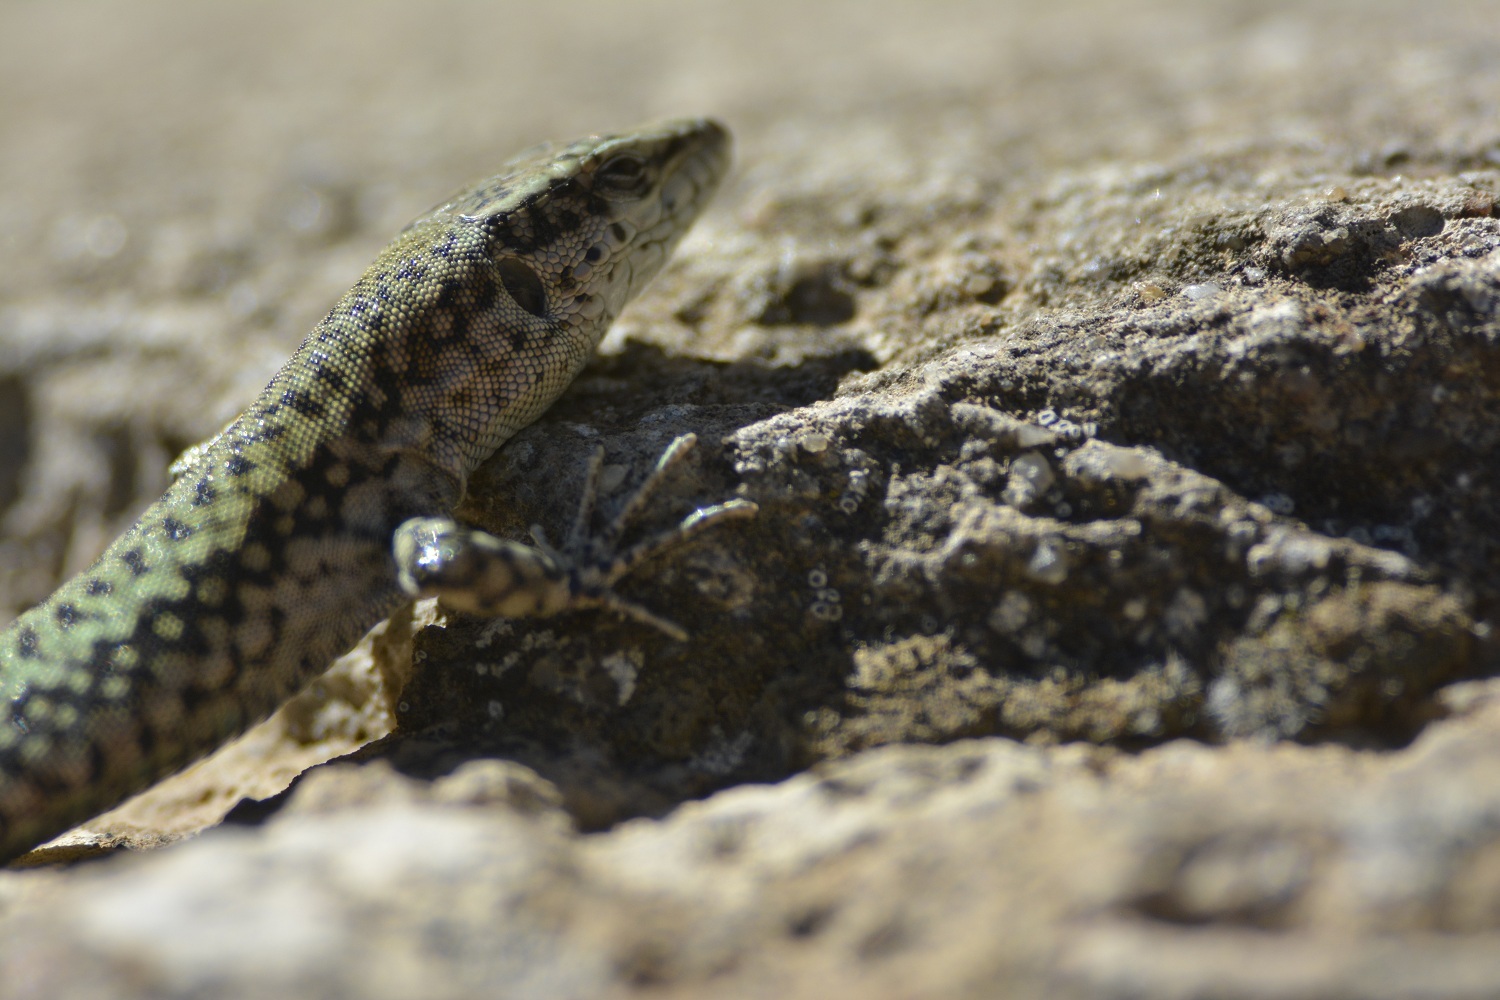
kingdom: Animalia
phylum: Chordata
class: Squamata
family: Lacertidae
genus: Podarcis
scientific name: Podarcis vaucheri
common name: Vaucher's wall lizard
